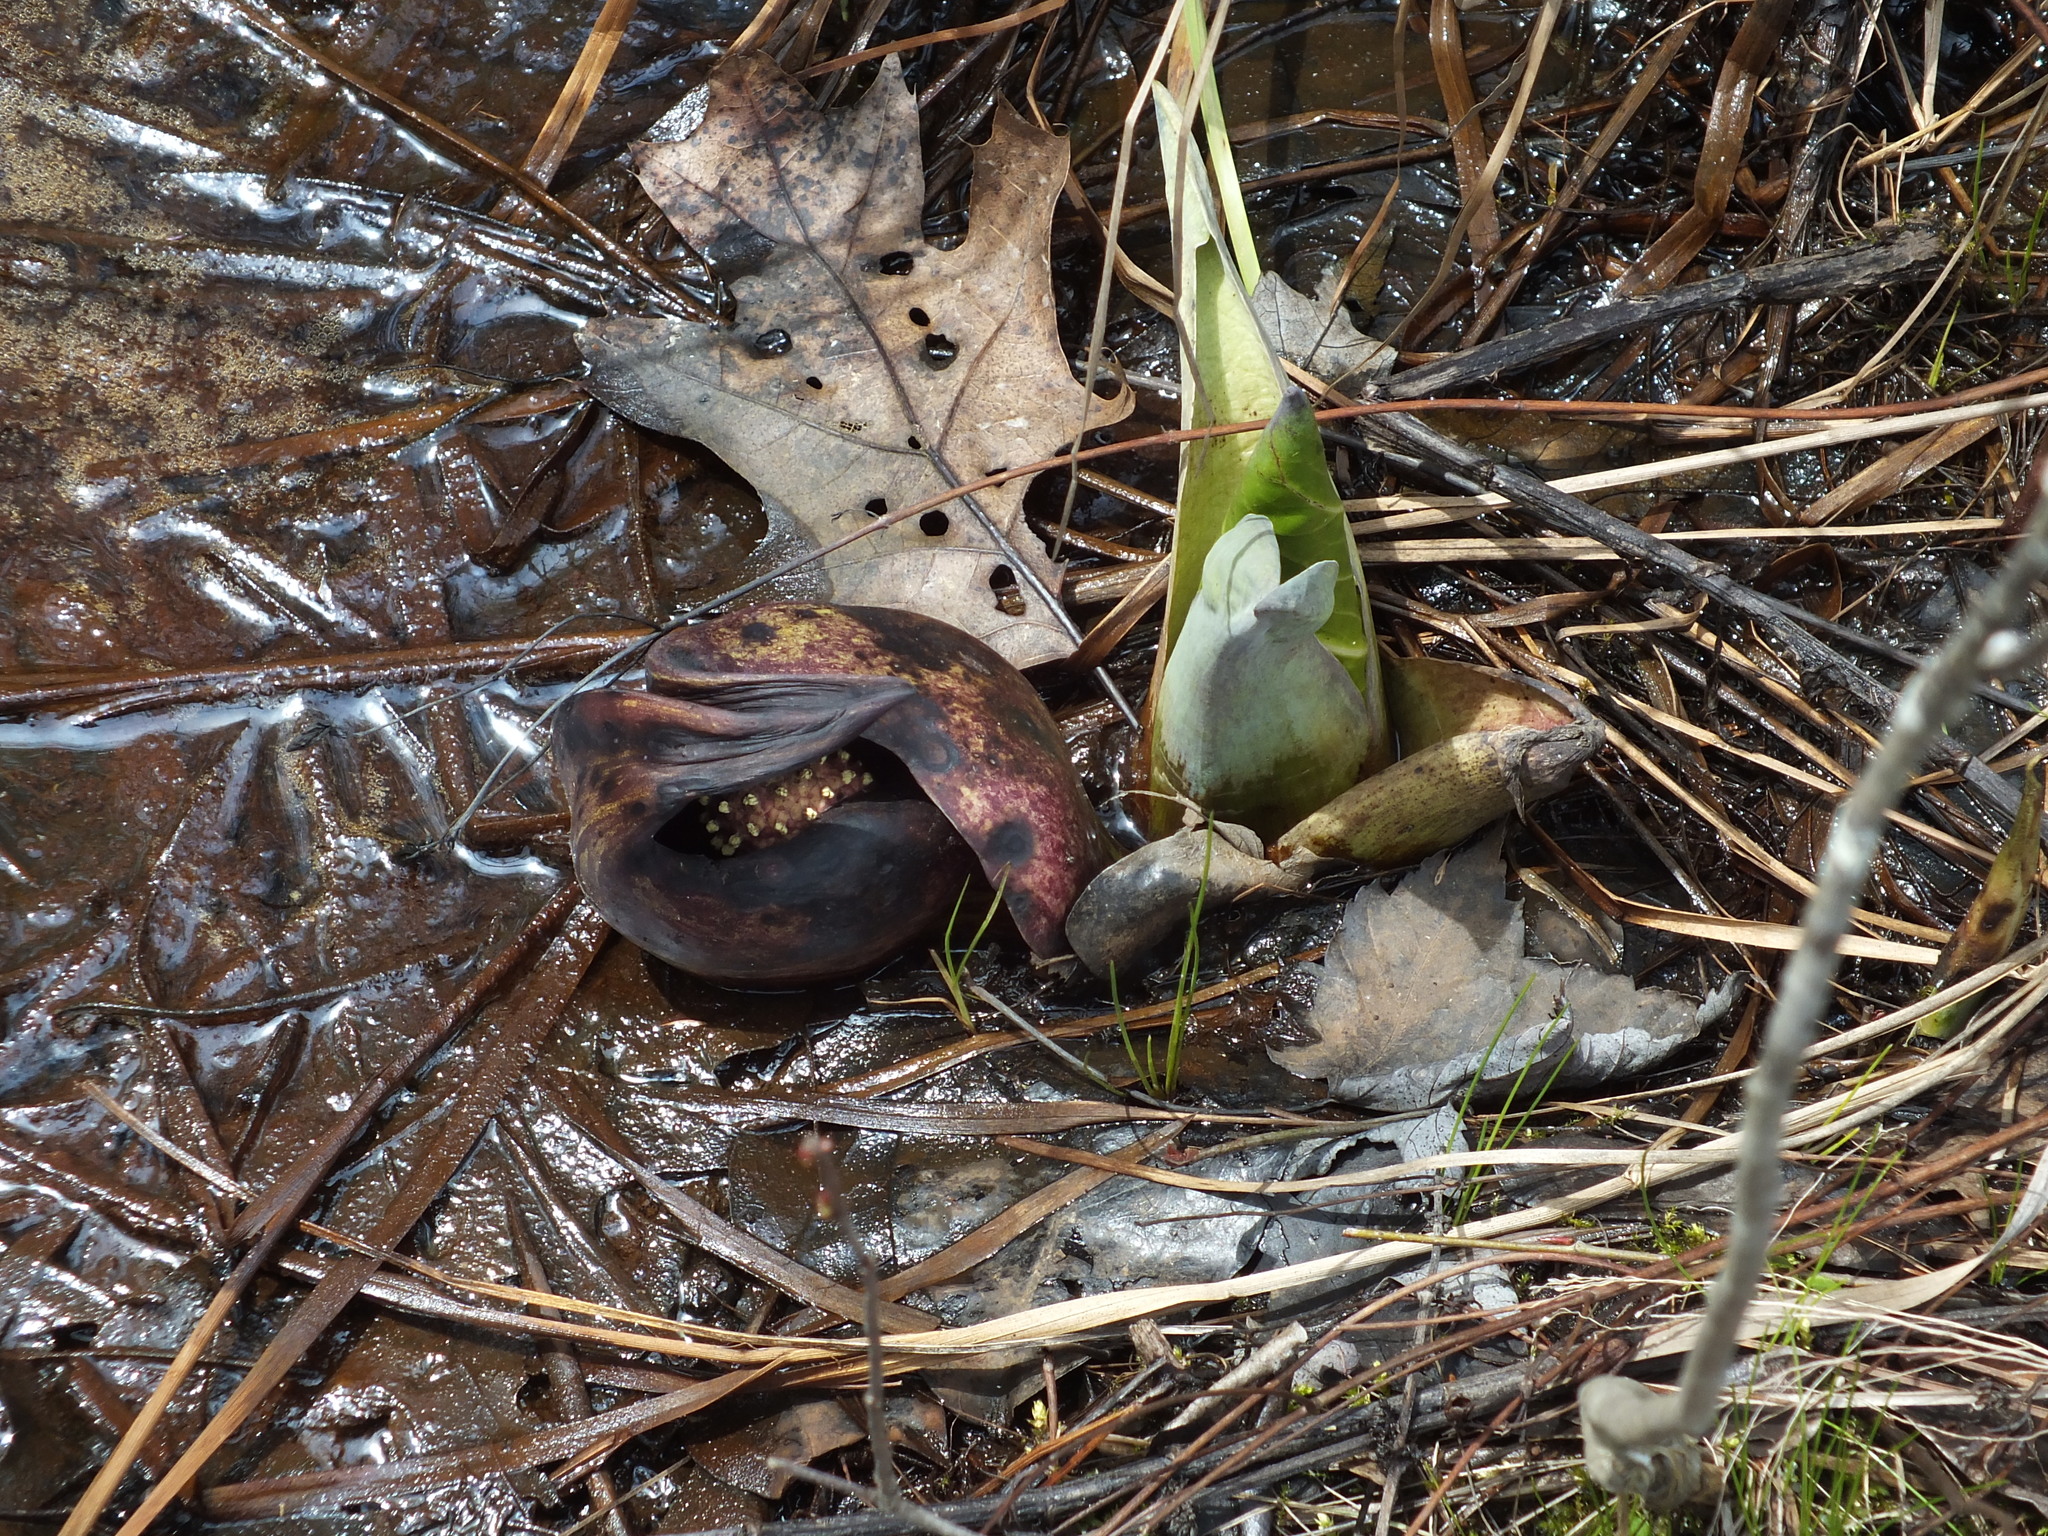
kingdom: Plantae
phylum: Tracheophyta
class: Liliopsida
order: Alismatales
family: Araceae
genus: Symplocarpus
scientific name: Symplocarpus foetidus
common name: Eastern skunk cabbage
